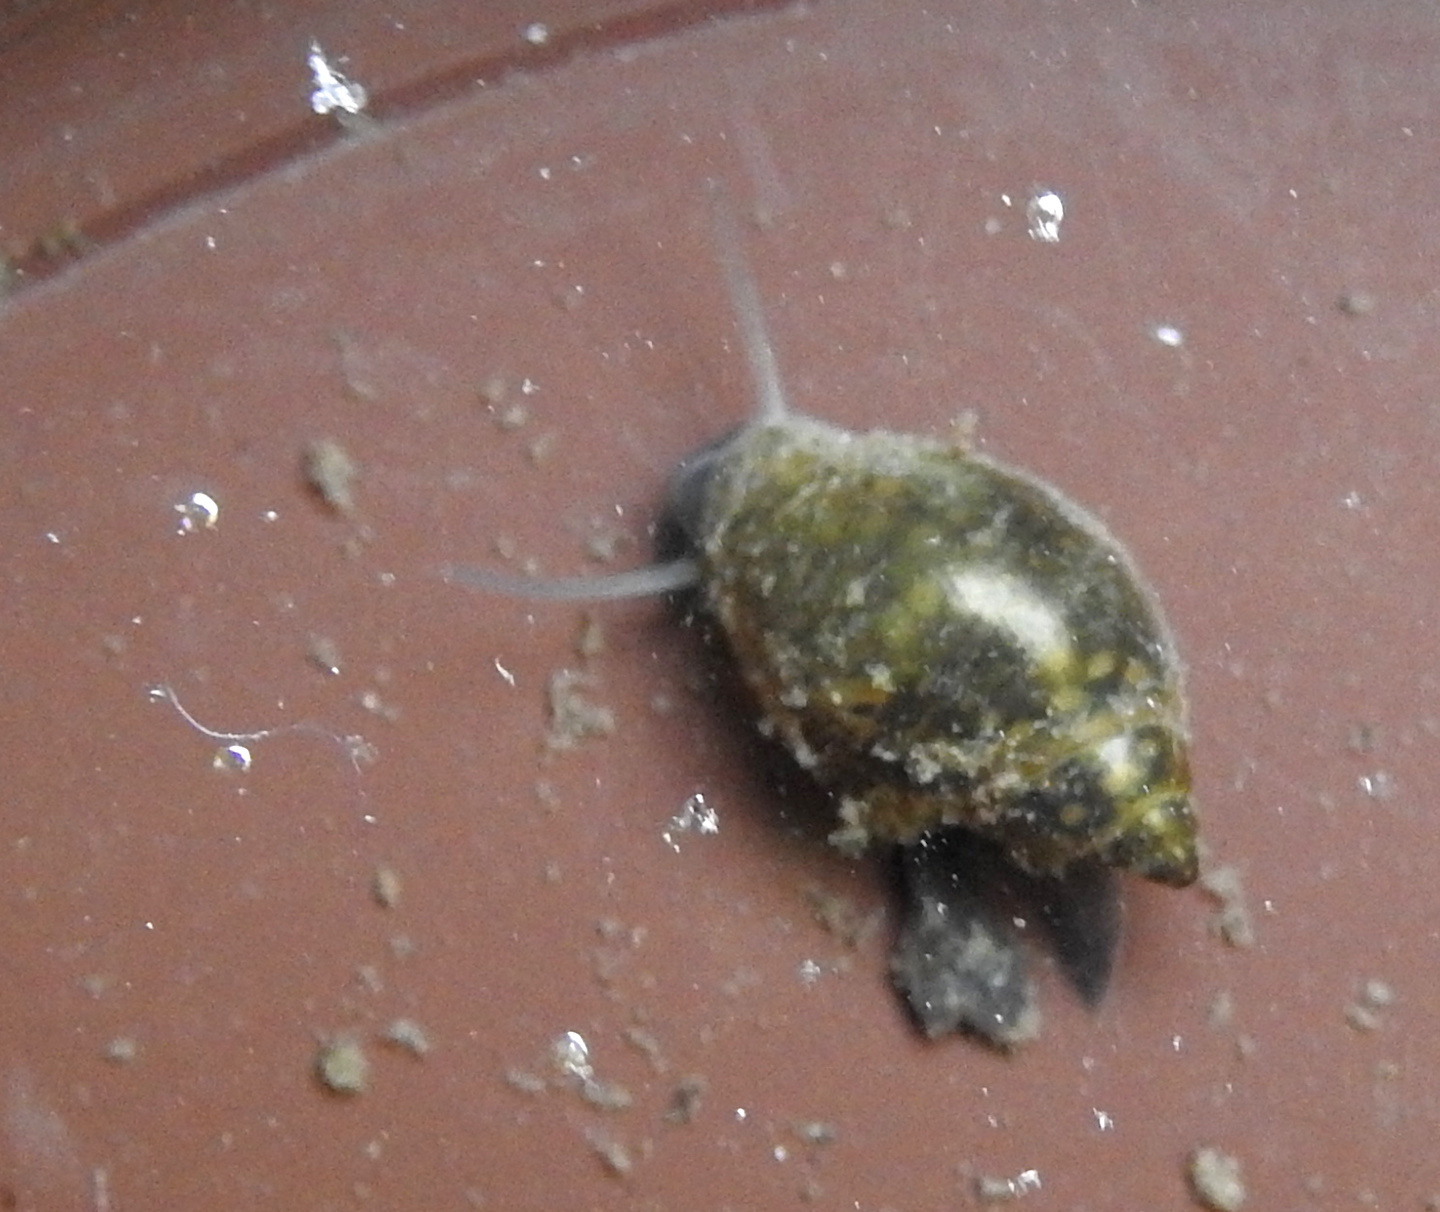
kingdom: Animalia
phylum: Mollusca
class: Gastropoda
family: Physidae
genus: Physella
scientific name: Physella acuta
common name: European physa
